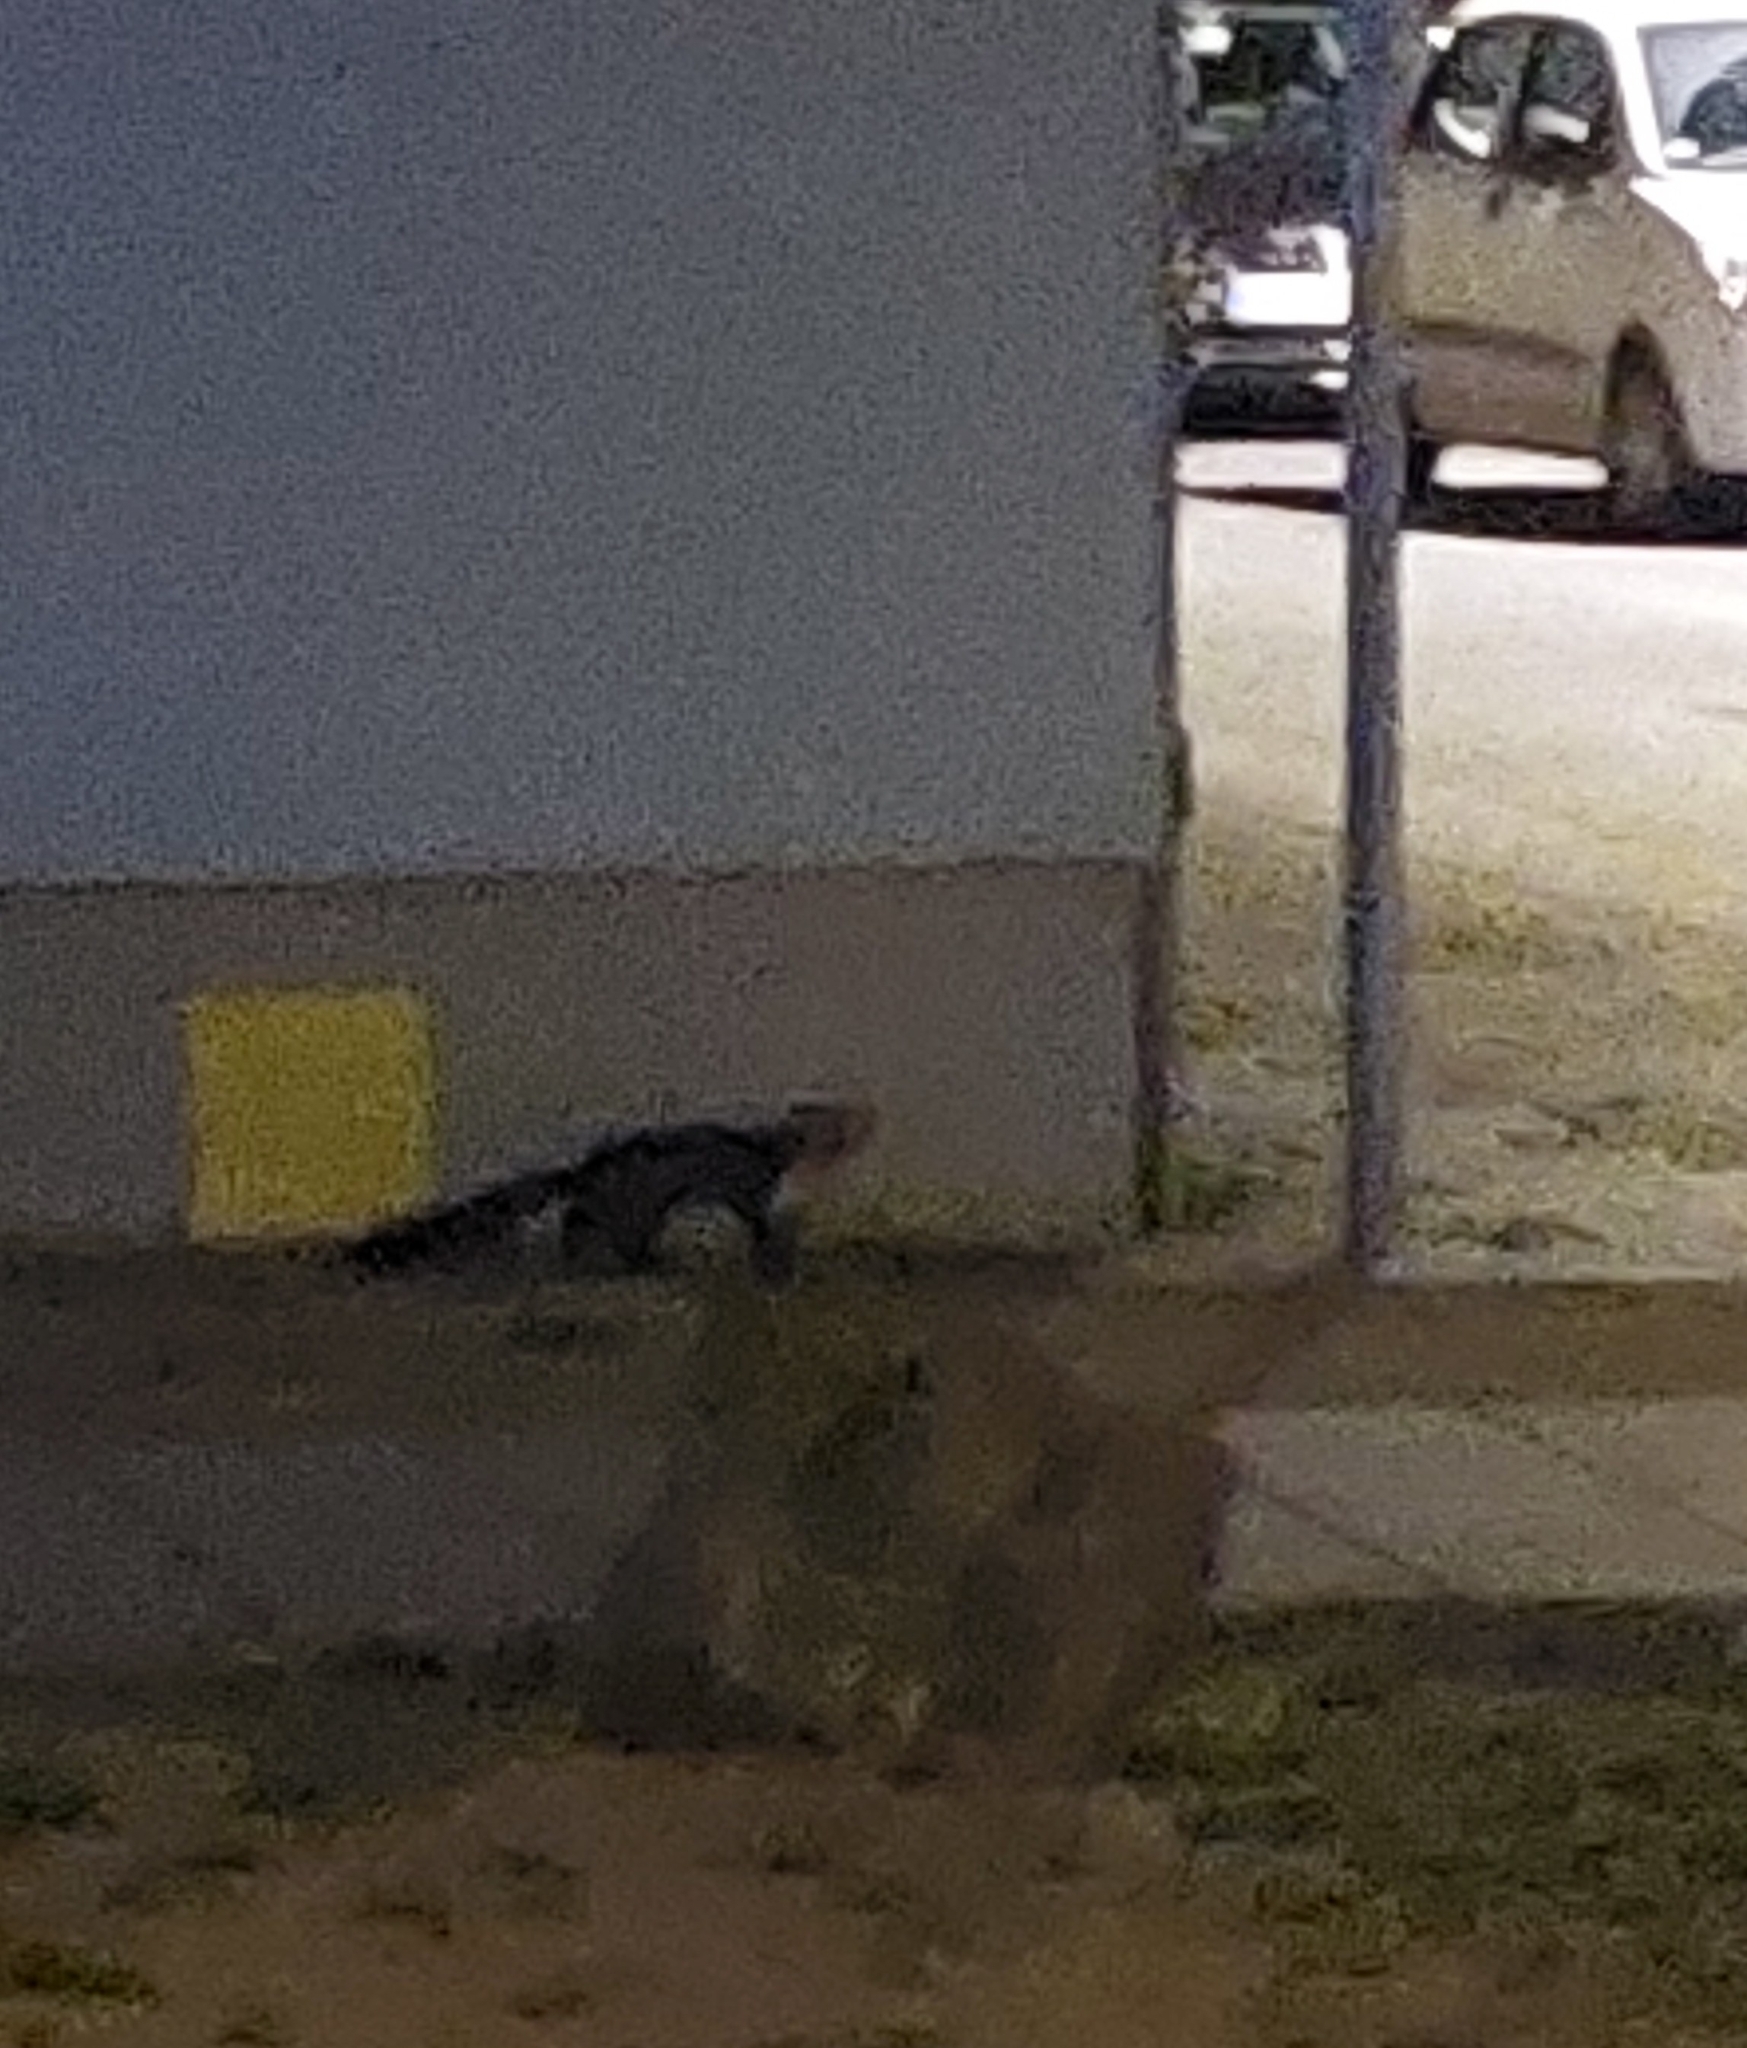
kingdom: Animalia
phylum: Chordata
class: Mammalia
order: Carnivora
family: Mustelidae
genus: Martes
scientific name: Martes foina
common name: Beech marten
